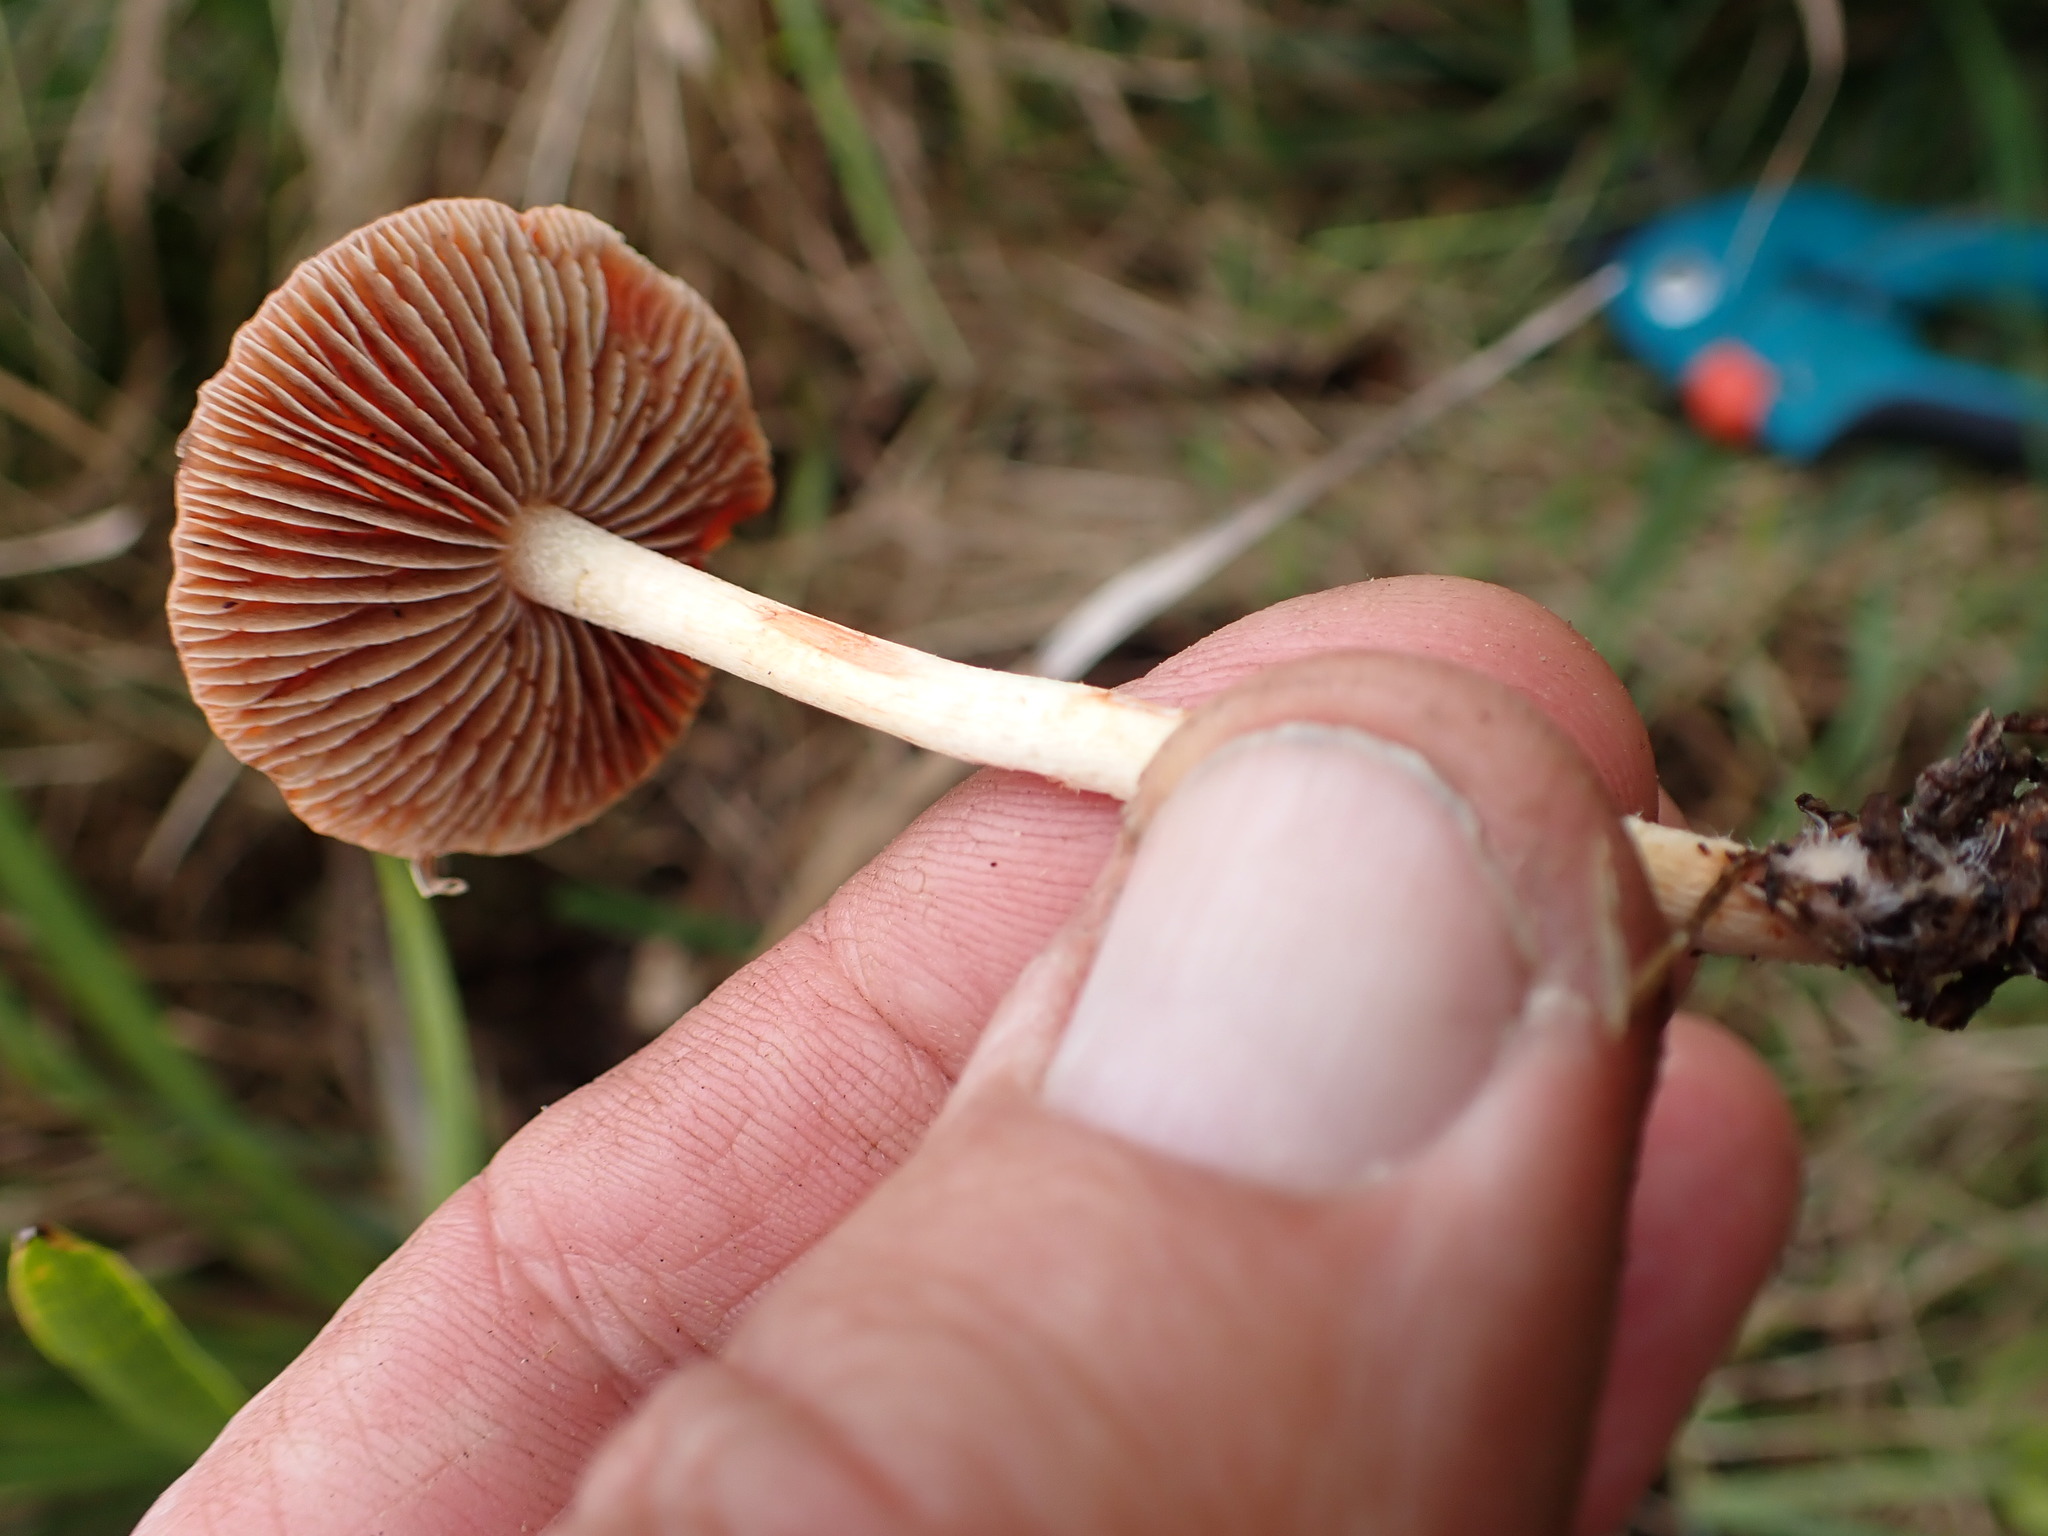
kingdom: Fungi
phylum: Basidiomycota
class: Agaricomycetes
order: Agaricales
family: Strophariaceae
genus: Leratiomyces
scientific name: Leratiomyces ceres
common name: Redlead roundhead
